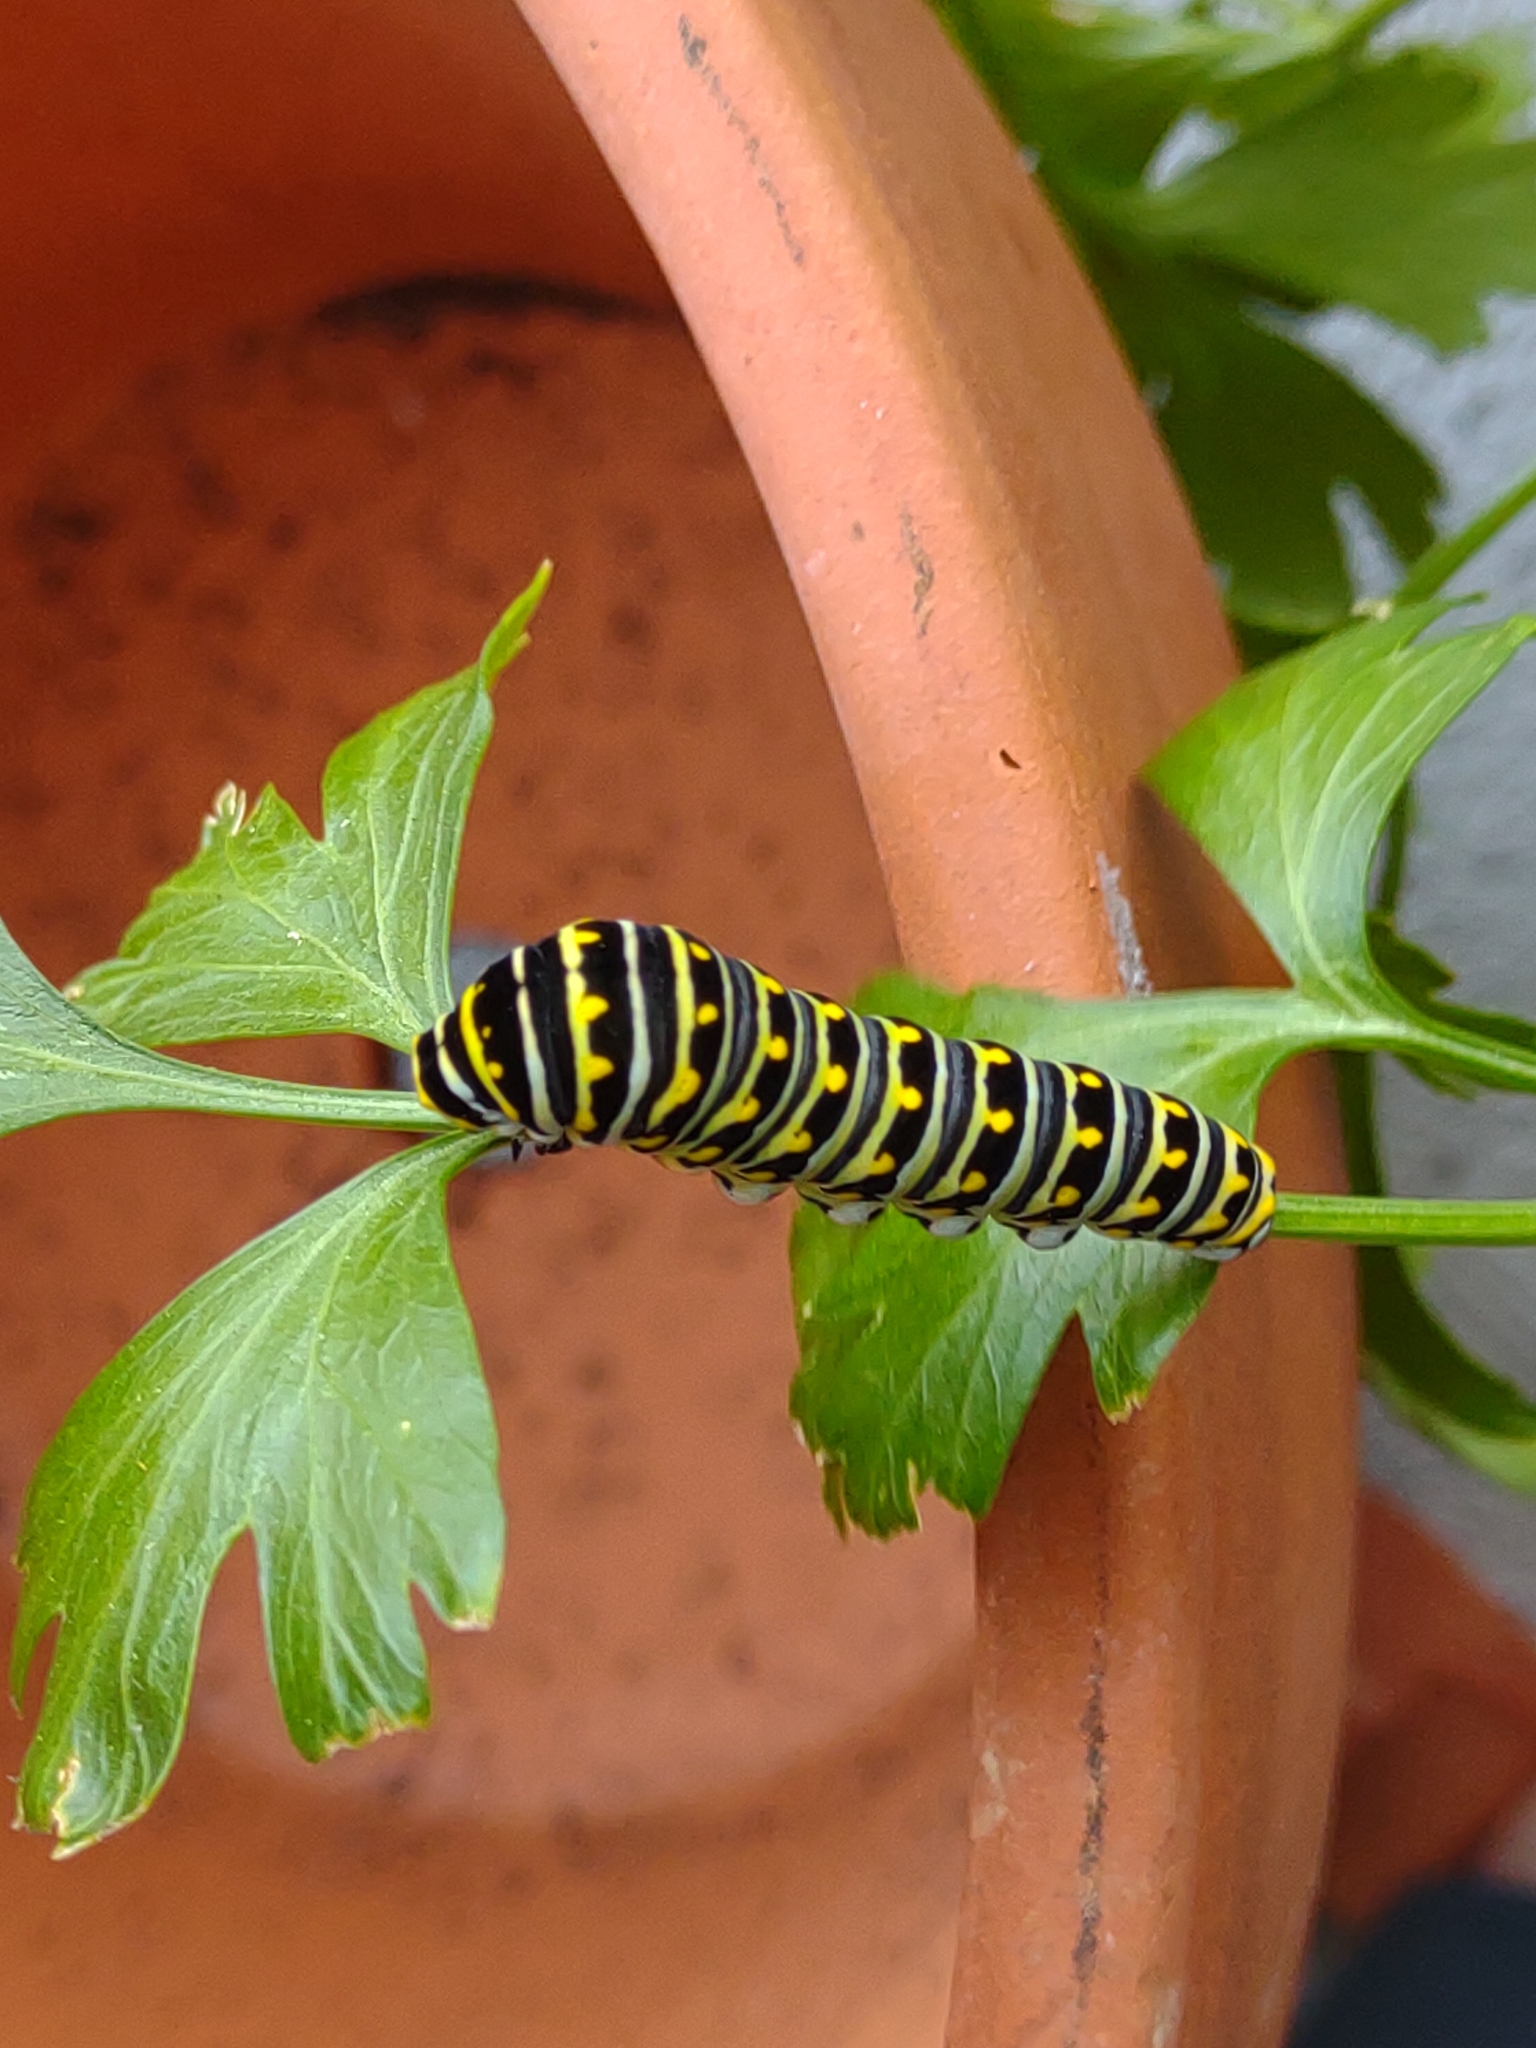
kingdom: Animalia
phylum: Arthropoda
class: Insecta
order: Lepidoptera
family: Papilionidae
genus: Papilio
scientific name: Papilio polyxenes
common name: Black swallowtail
